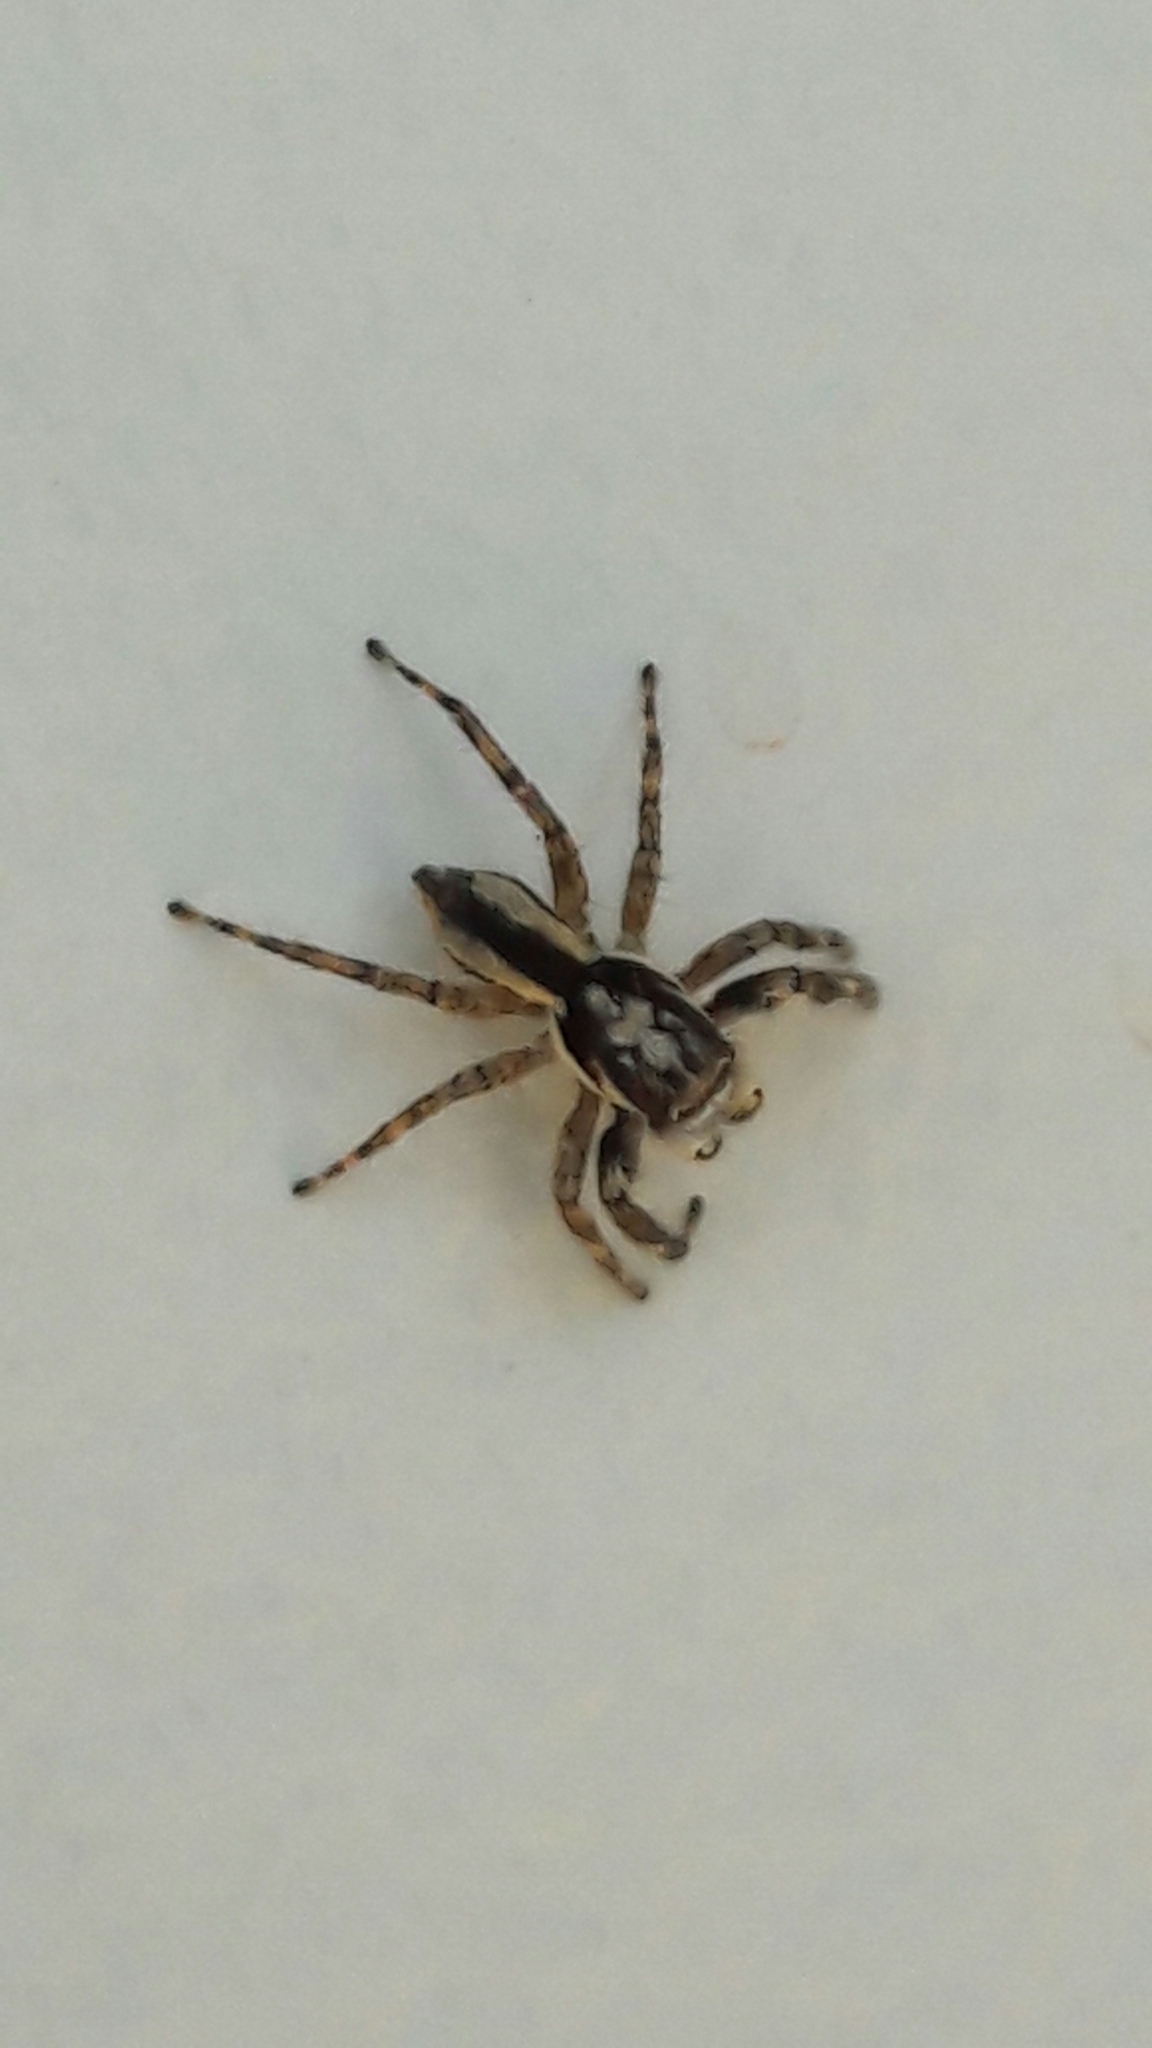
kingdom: Animalia
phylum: Arthropoda
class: Arachnida
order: Araneae
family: Salticidae
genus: Menemerus
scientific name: Menemerus bivittatus
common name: Gray wall jumper
